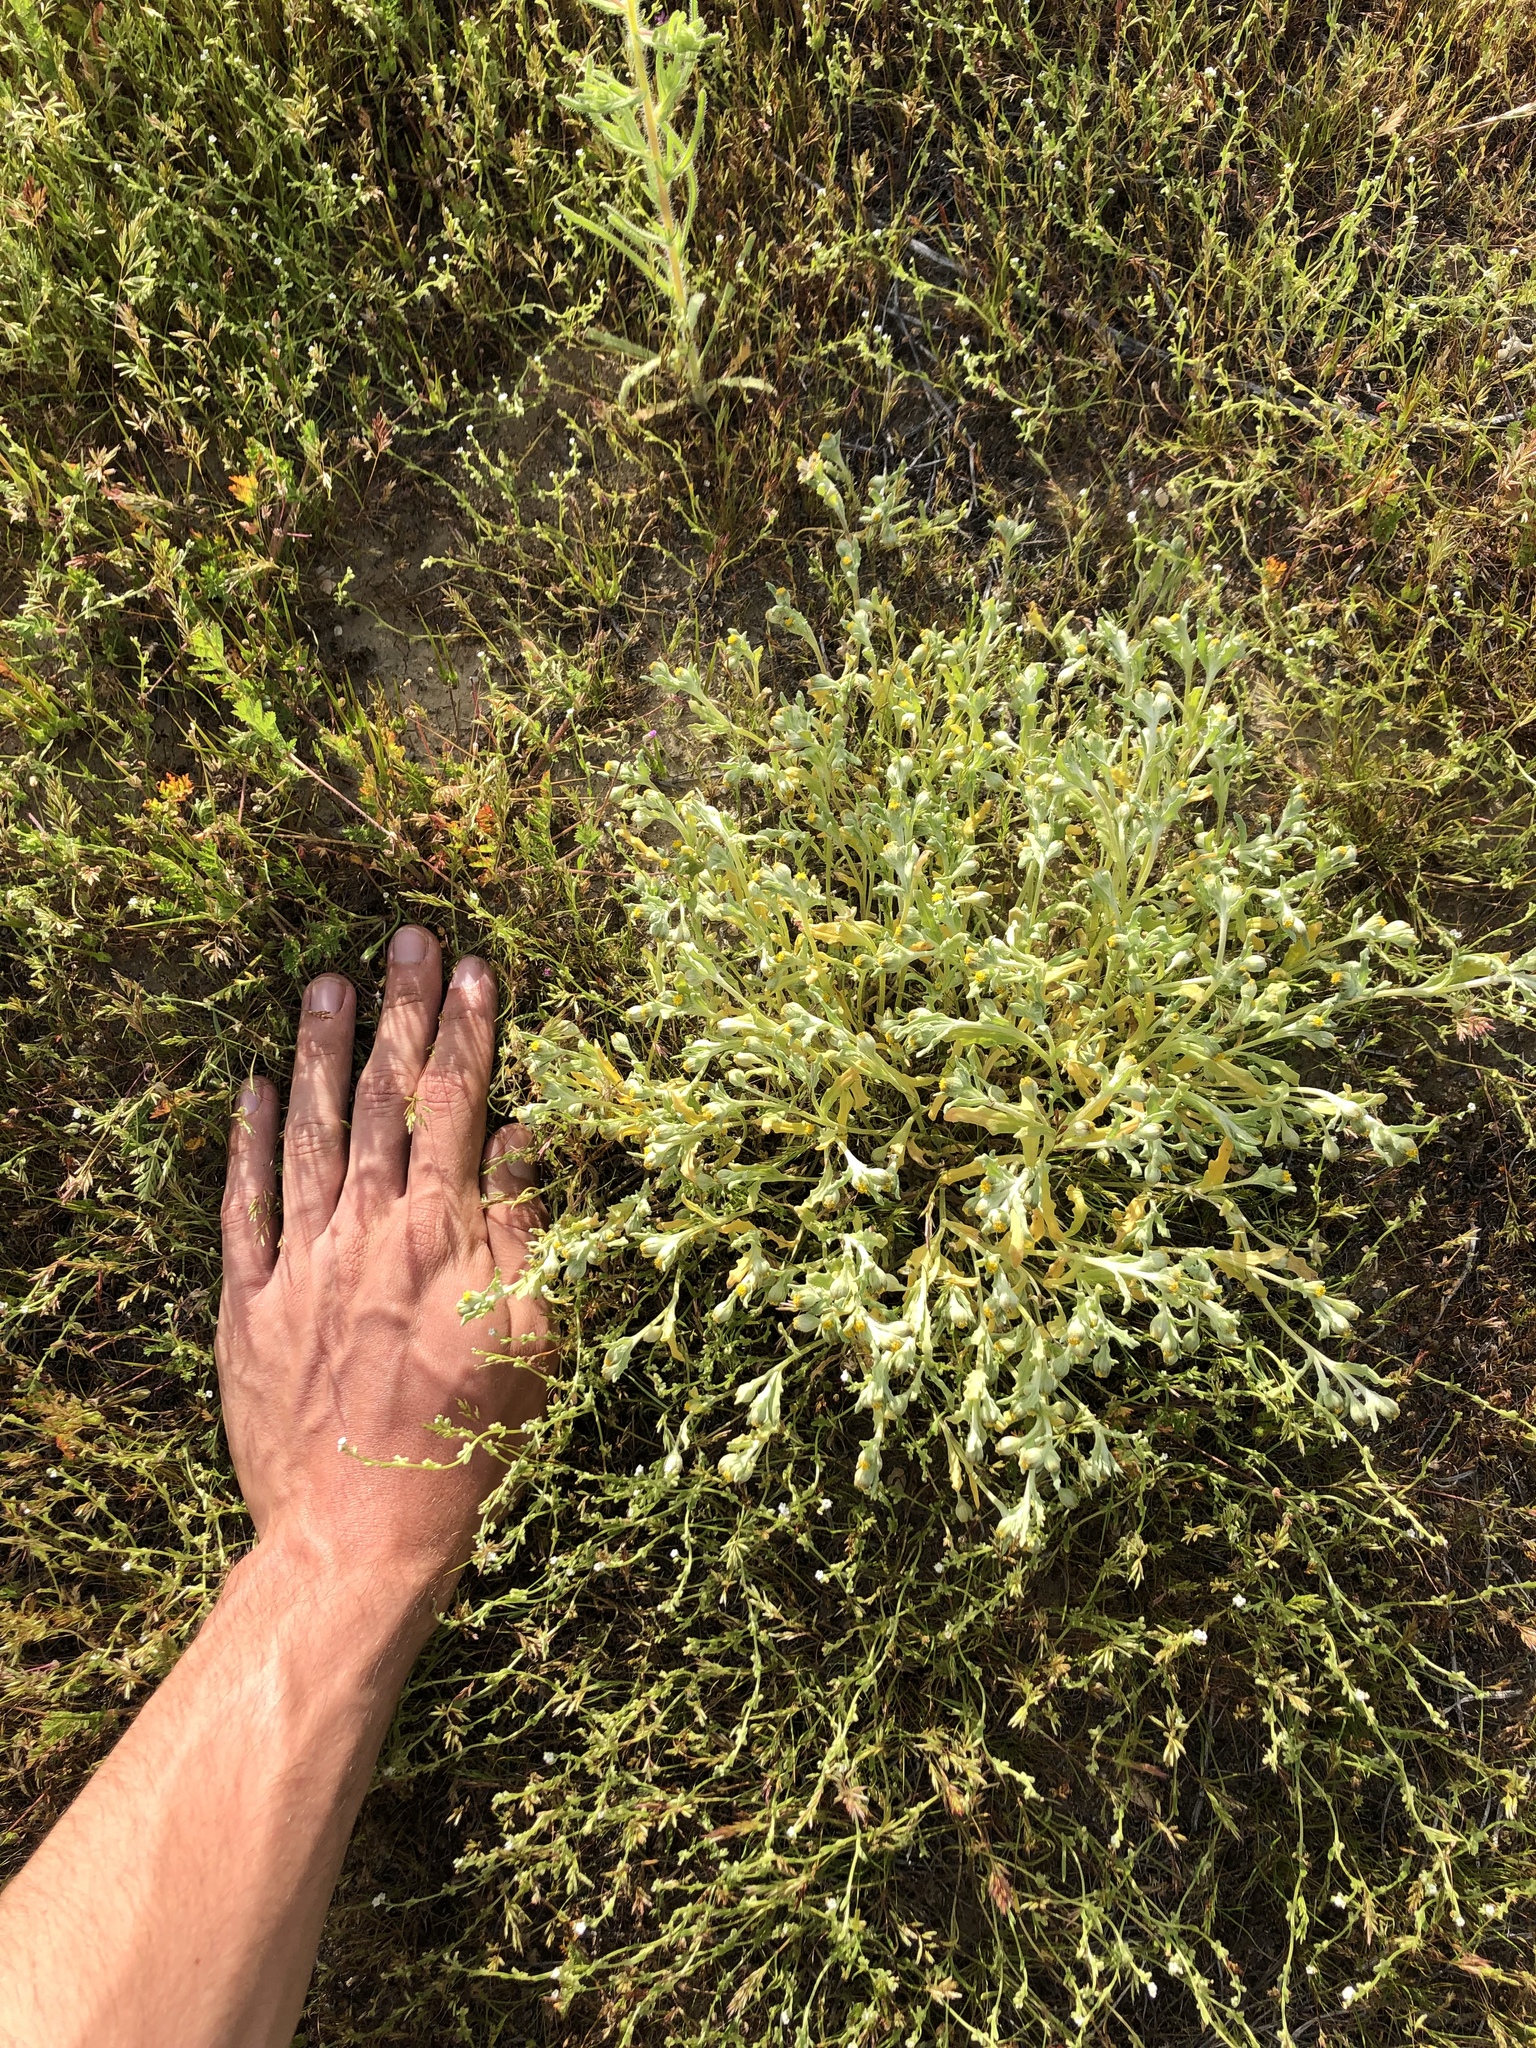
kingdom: Plantae
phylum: Tracheophyta
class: Magnoliopsida
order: Asterales
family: Asteraceae
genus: Monolopia
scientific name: Monolopia congdonii
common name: San joaquin woolly-threads
